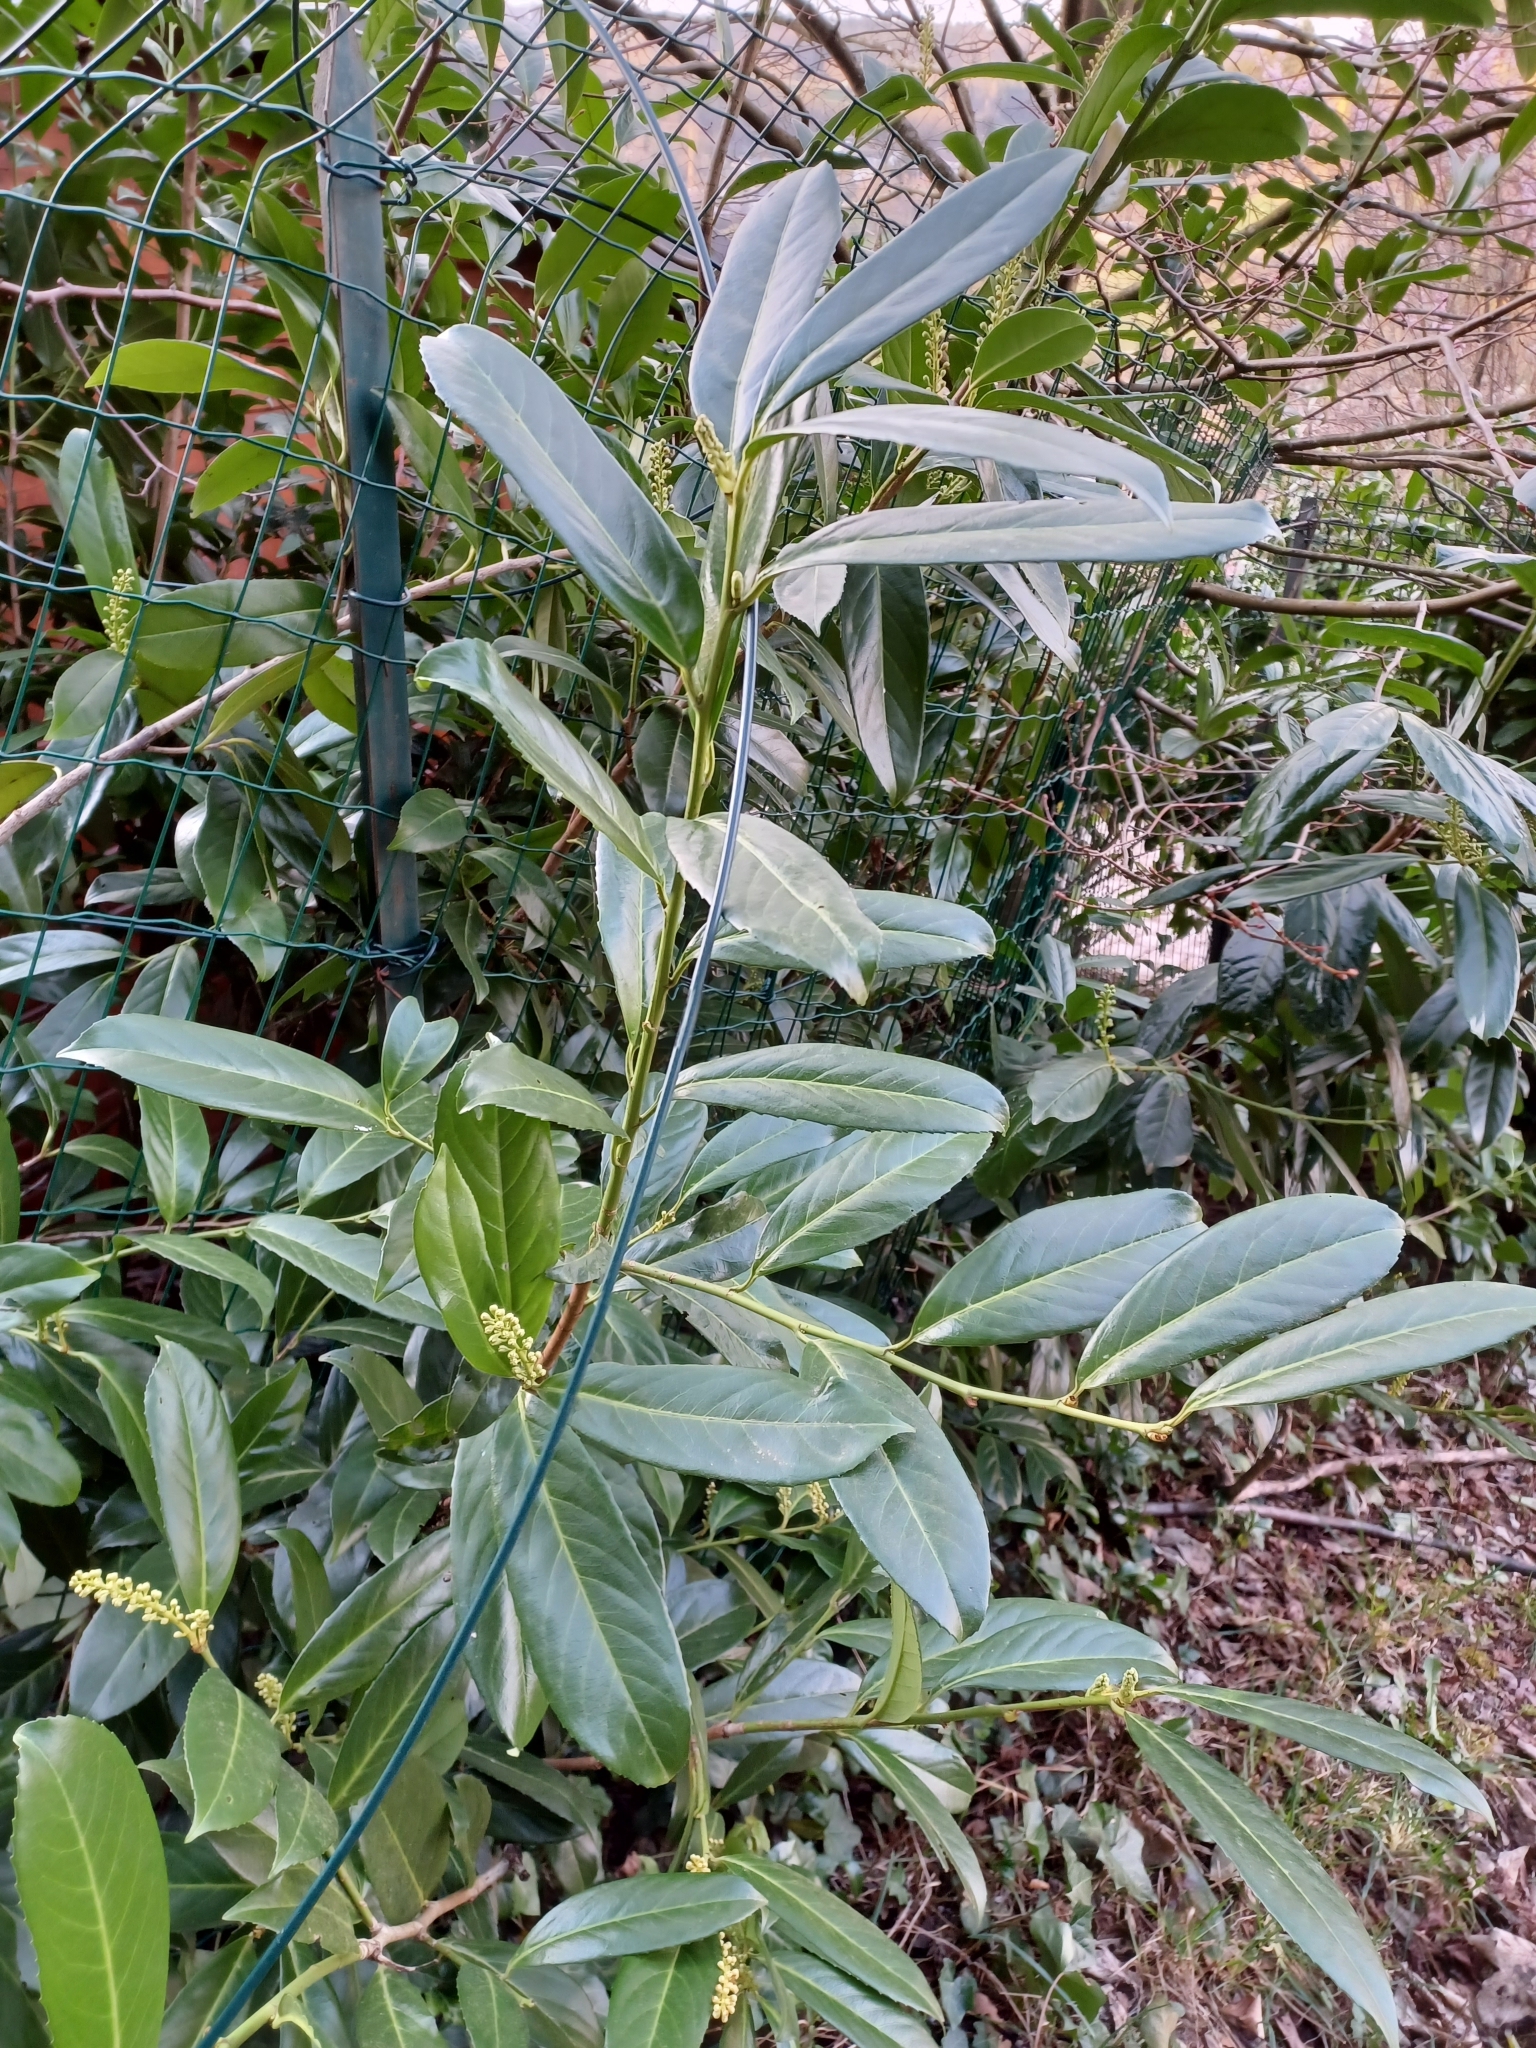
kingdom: Plantae
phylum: Tracheophyta
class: Magnoliopsida
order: Rosales
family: Rosaceae
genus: Prunus
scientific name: Prunus laurocerasus
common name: Cherry laurel
